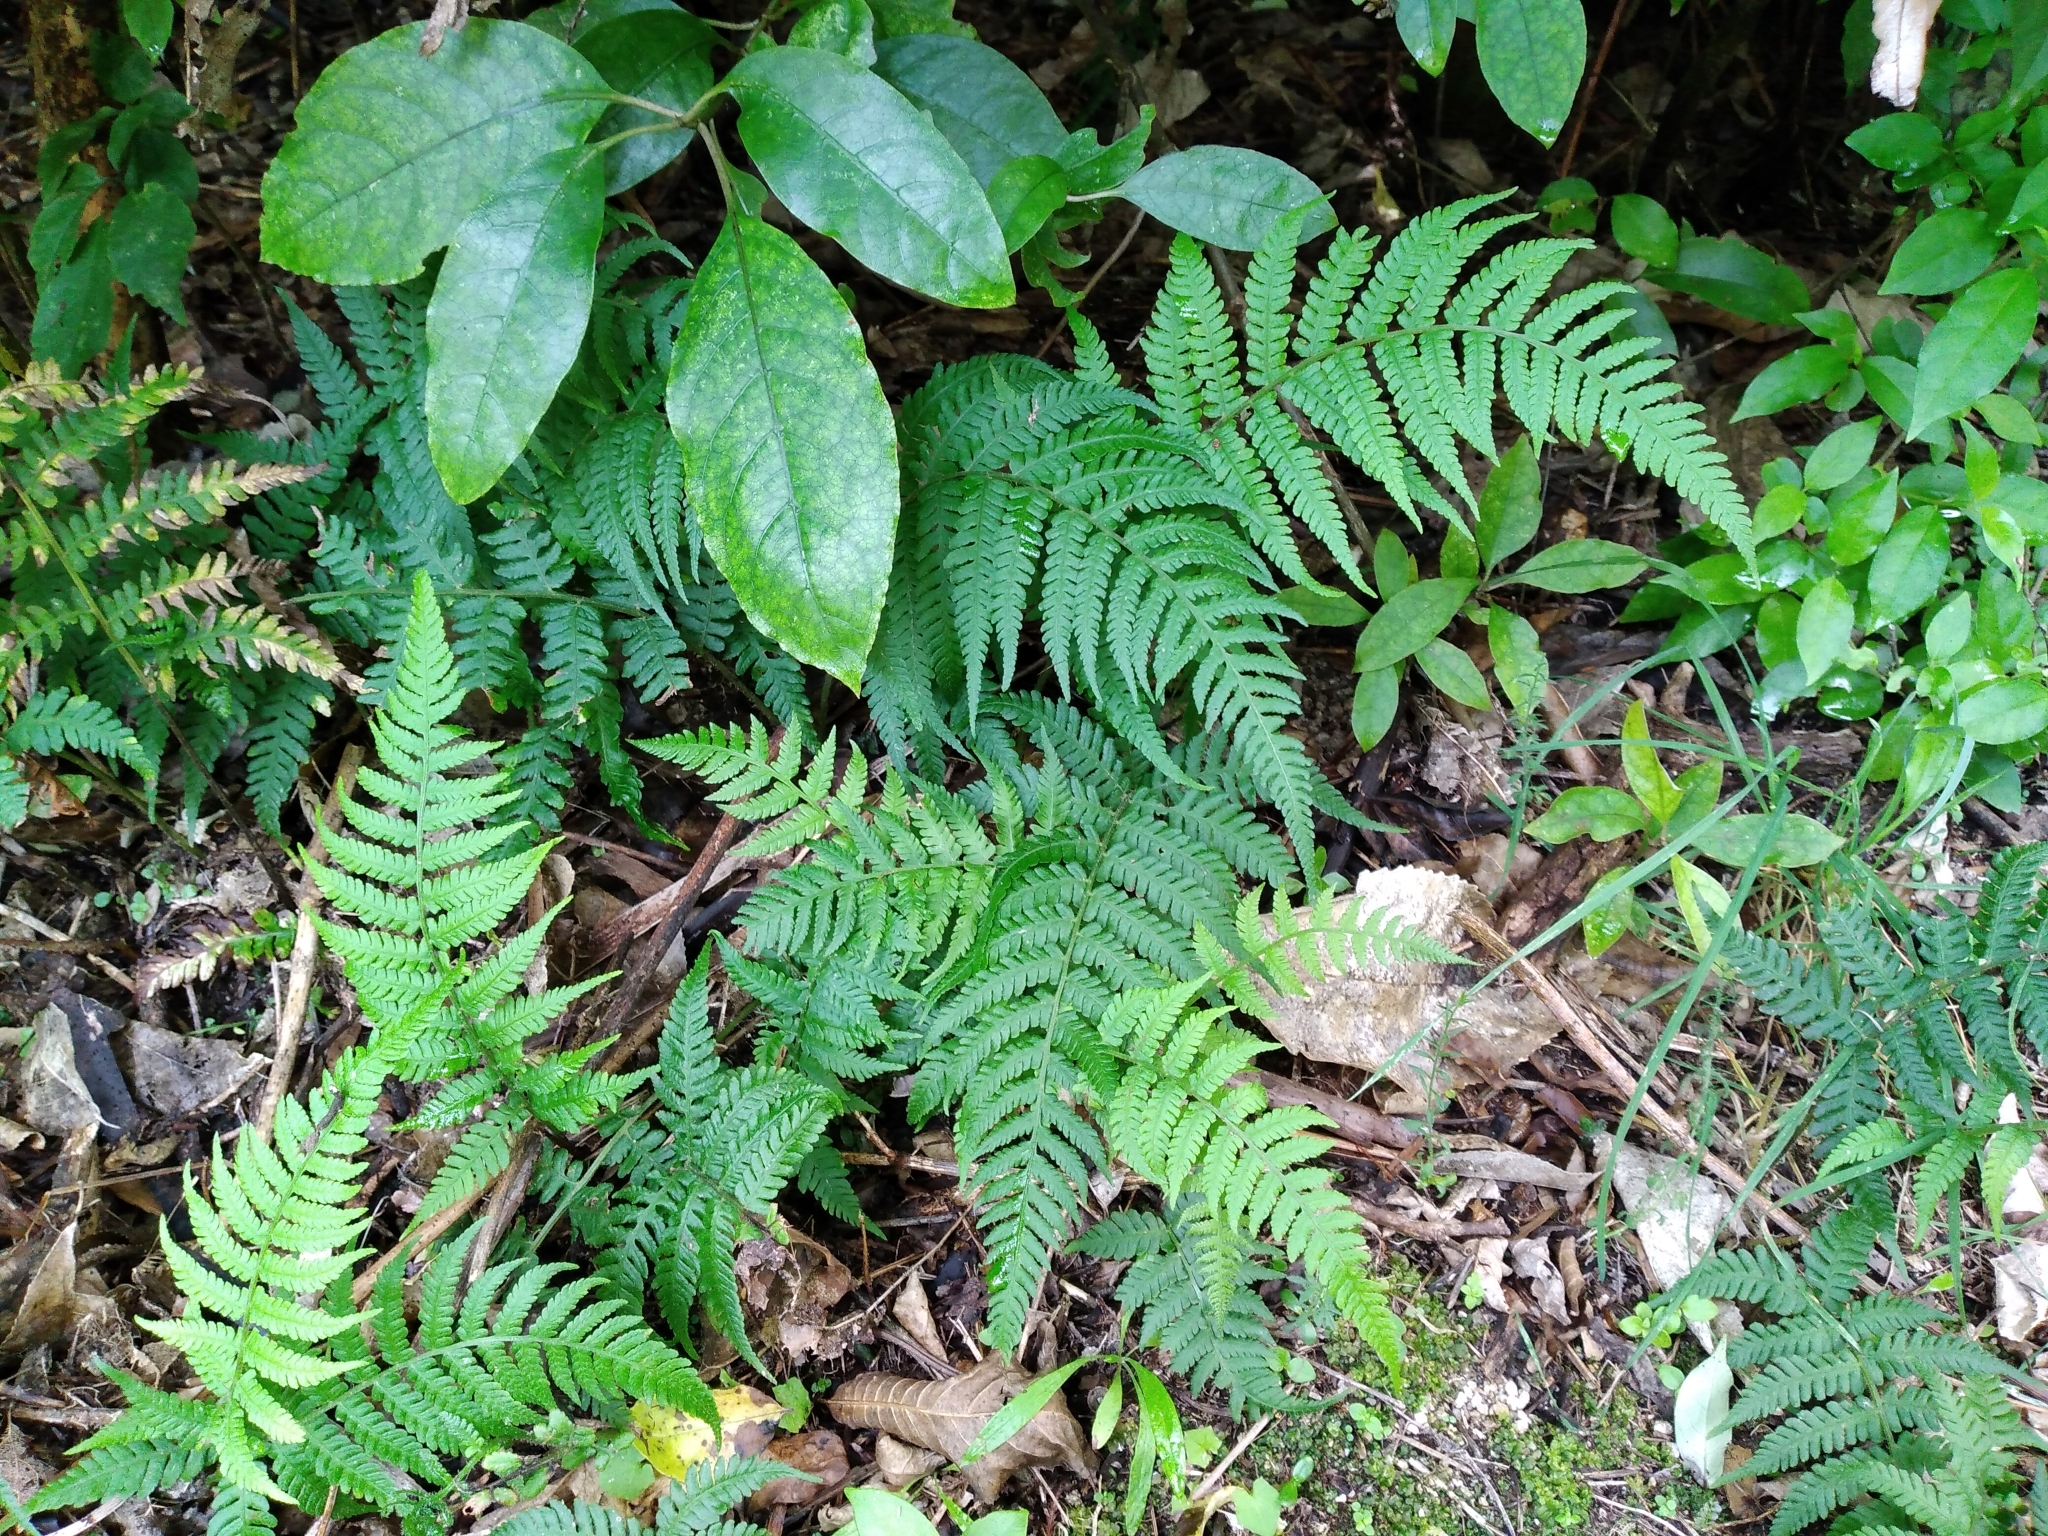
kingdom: Plantae
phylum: Tracheophyta
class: Polypodiopsida
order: Polypodiales
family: Athyriaceae
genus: Diplazium
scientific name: Diplazium congruum
